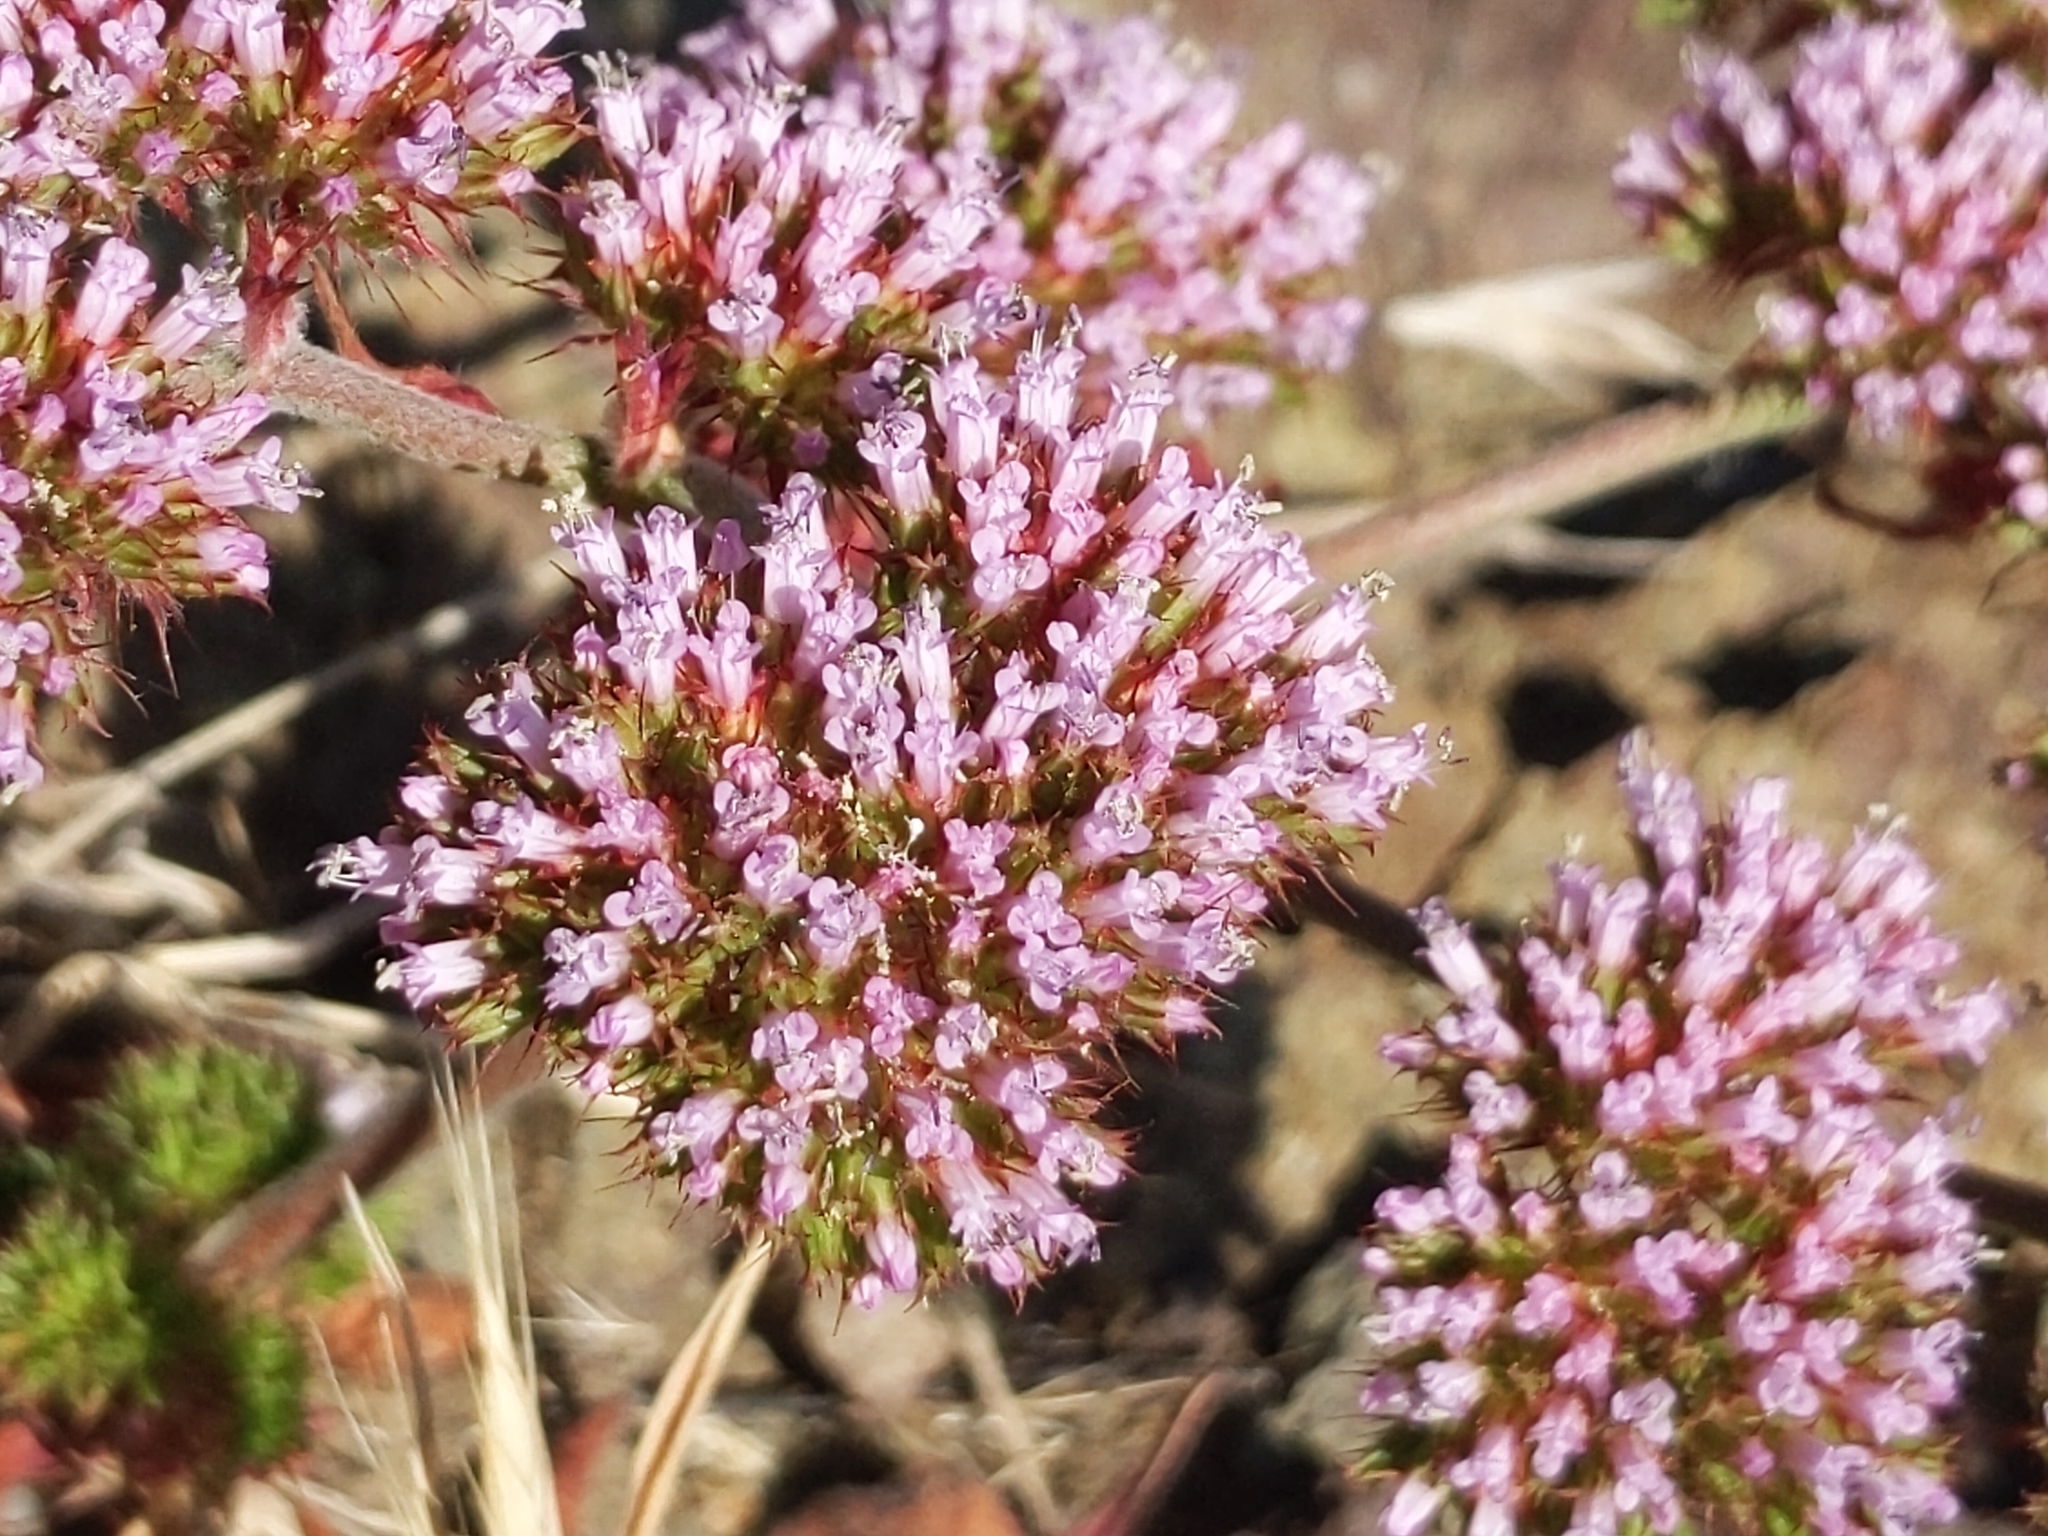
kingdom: Plantae
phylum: Tracheophyta
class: Magnoliopsida
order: Caryophyllales
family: Polygonaceae
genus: Chorizanthe
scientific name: Chorizanthe palmeri
